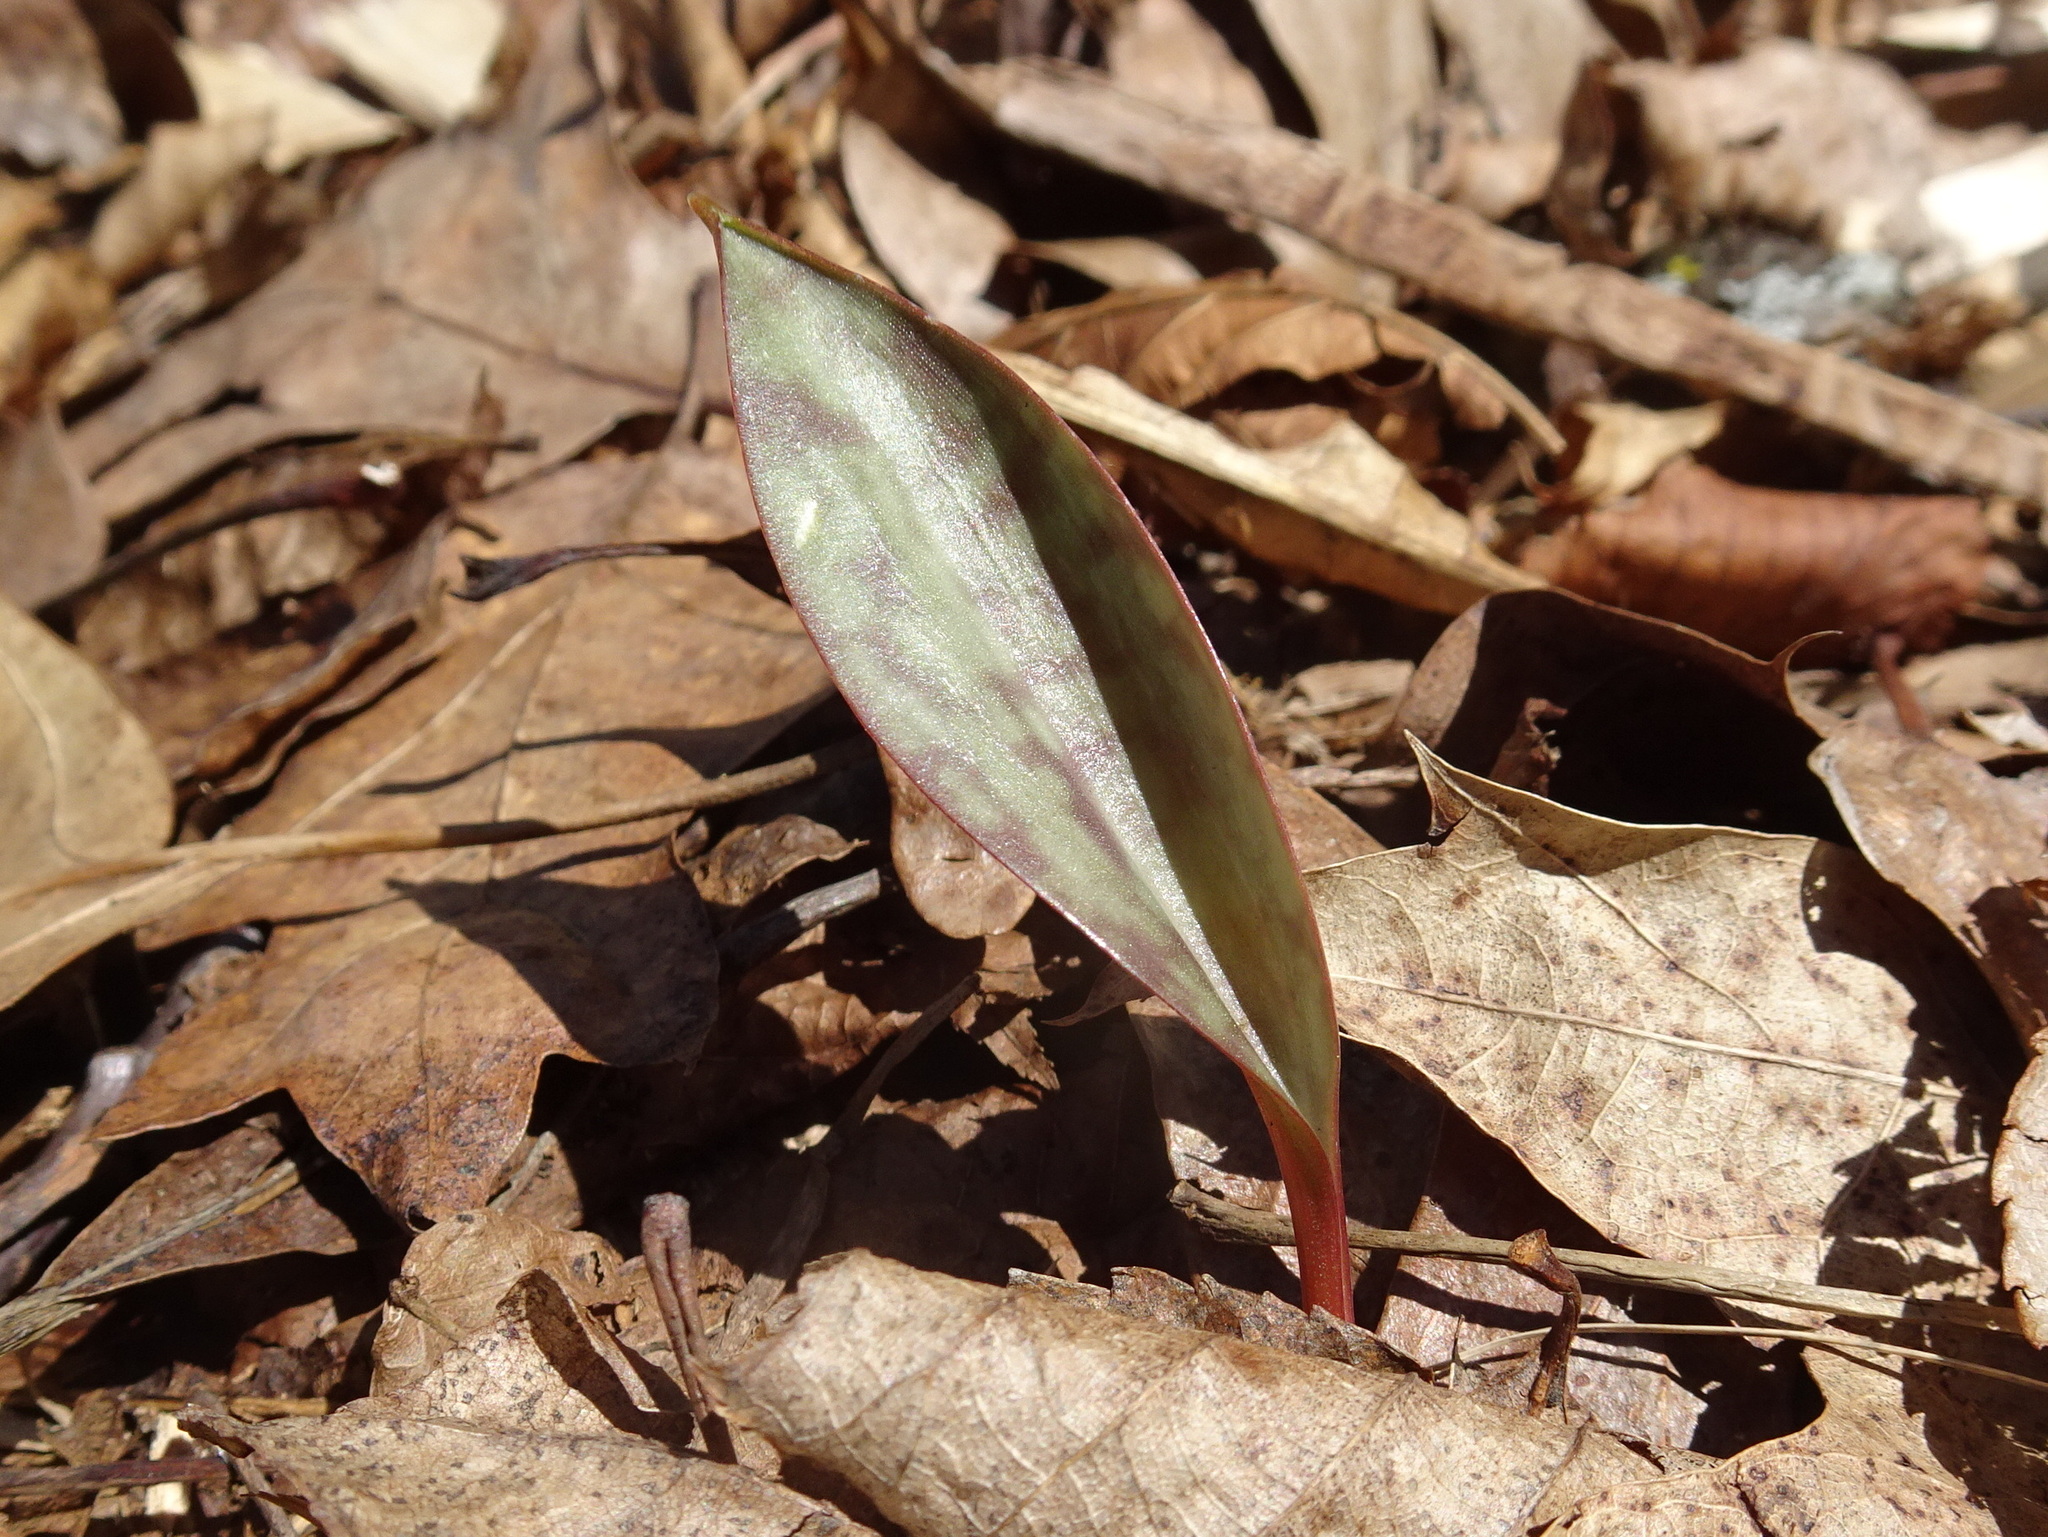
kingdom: Plantae
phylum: Tracheophyta
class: Liliopsida
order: Liliales
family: Liliaceae
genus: Erythronium
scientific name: Erythronium americanum
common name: Yellow adder's-tongue
